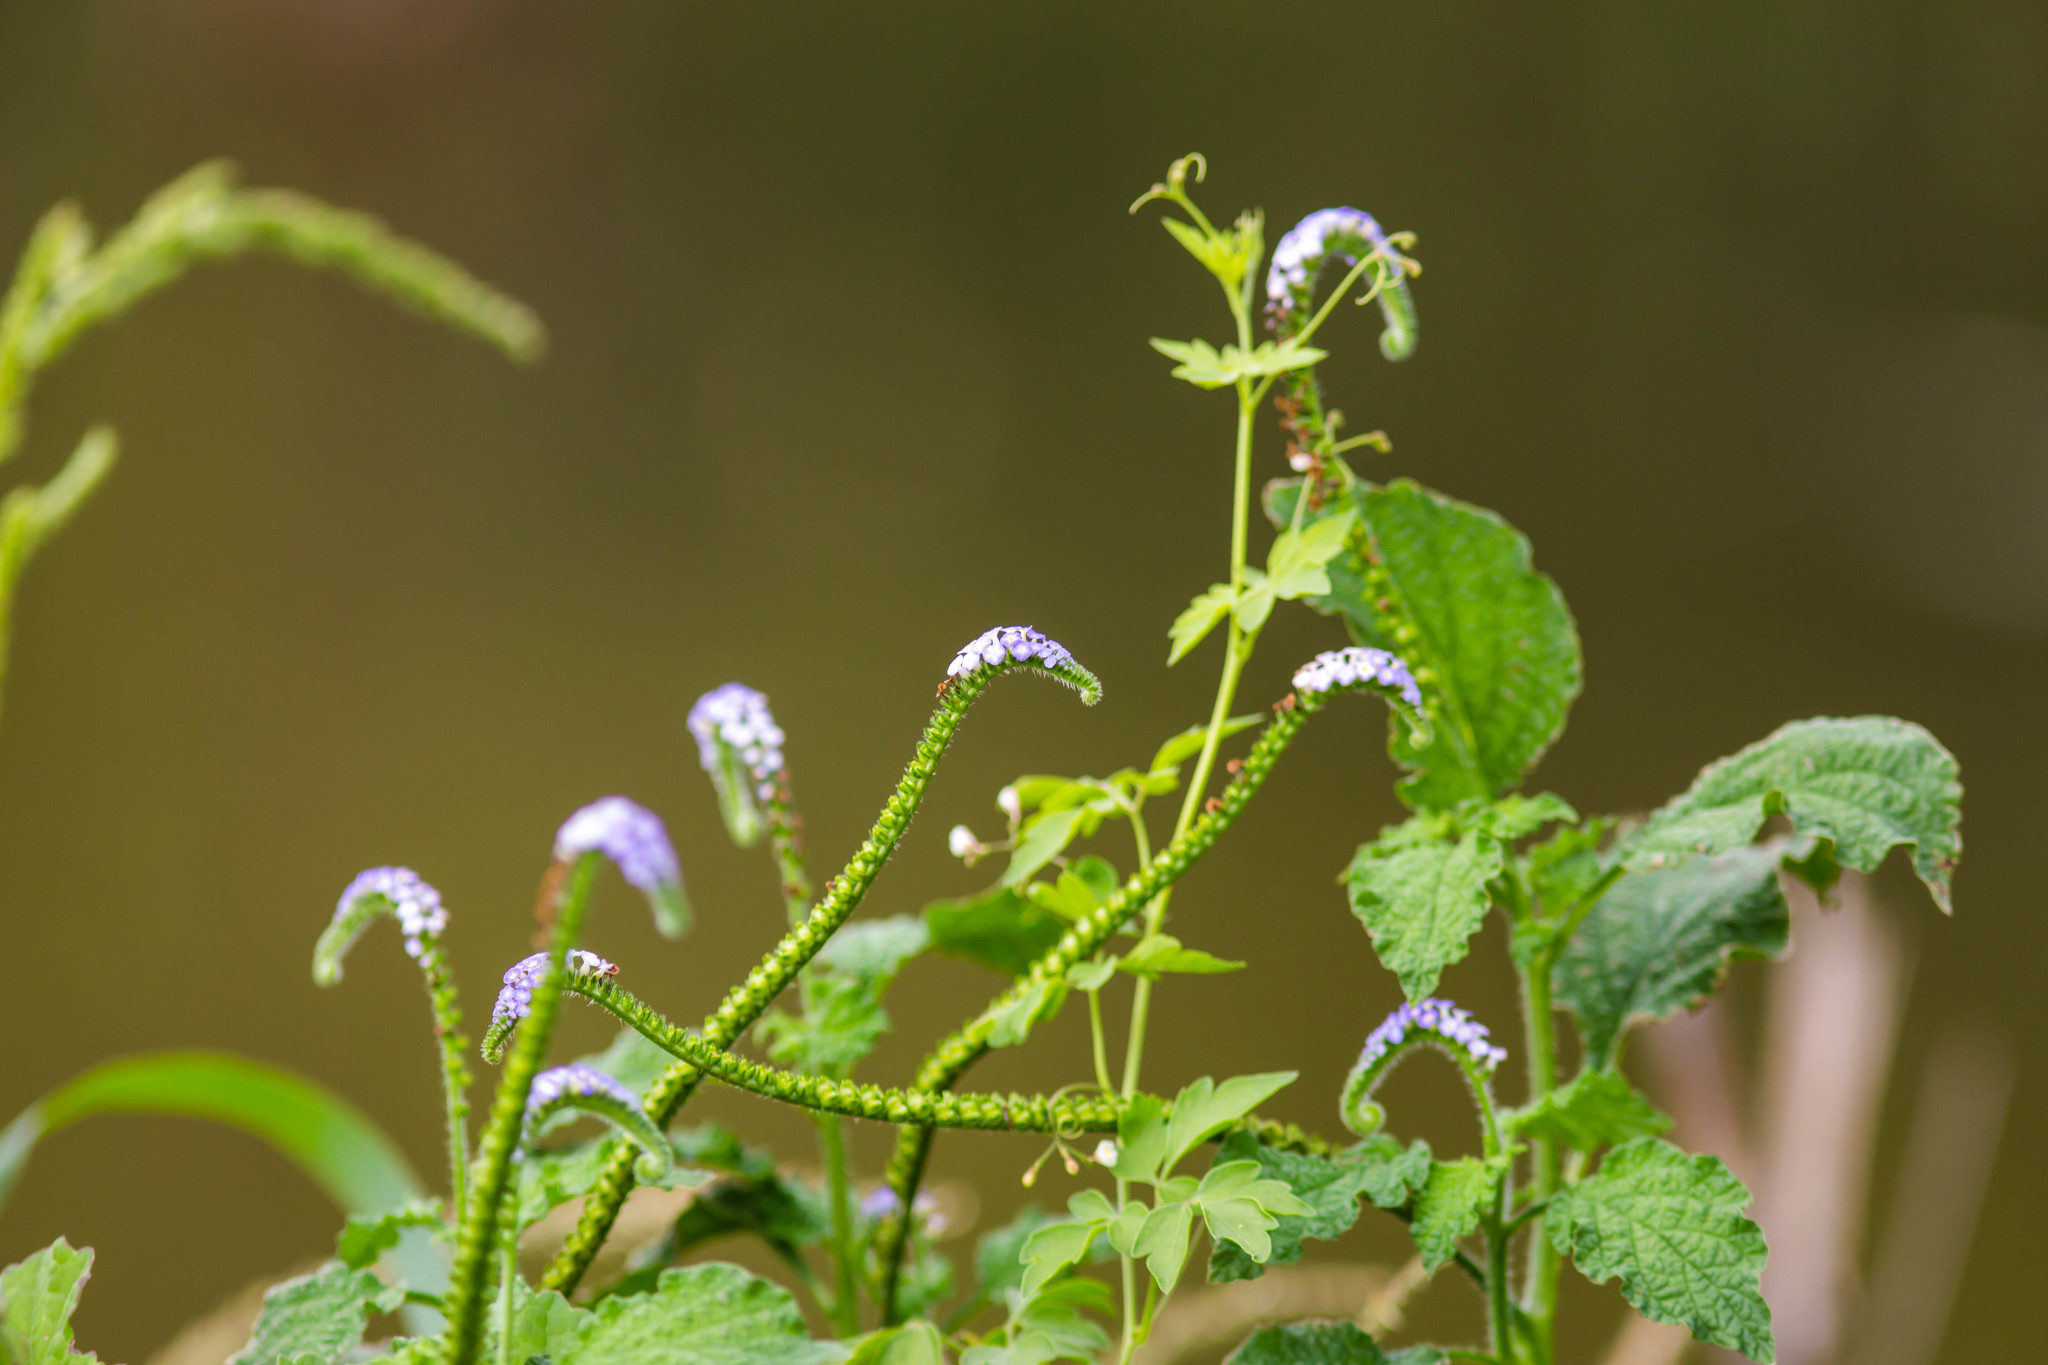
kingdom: Plantae
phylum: Tracheophyta
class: Magnoliopsida
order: Boraginales
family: Heliotropiaceae
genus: Heliotropium
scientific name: Heliotropium indicum
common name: Indian heliotrope
